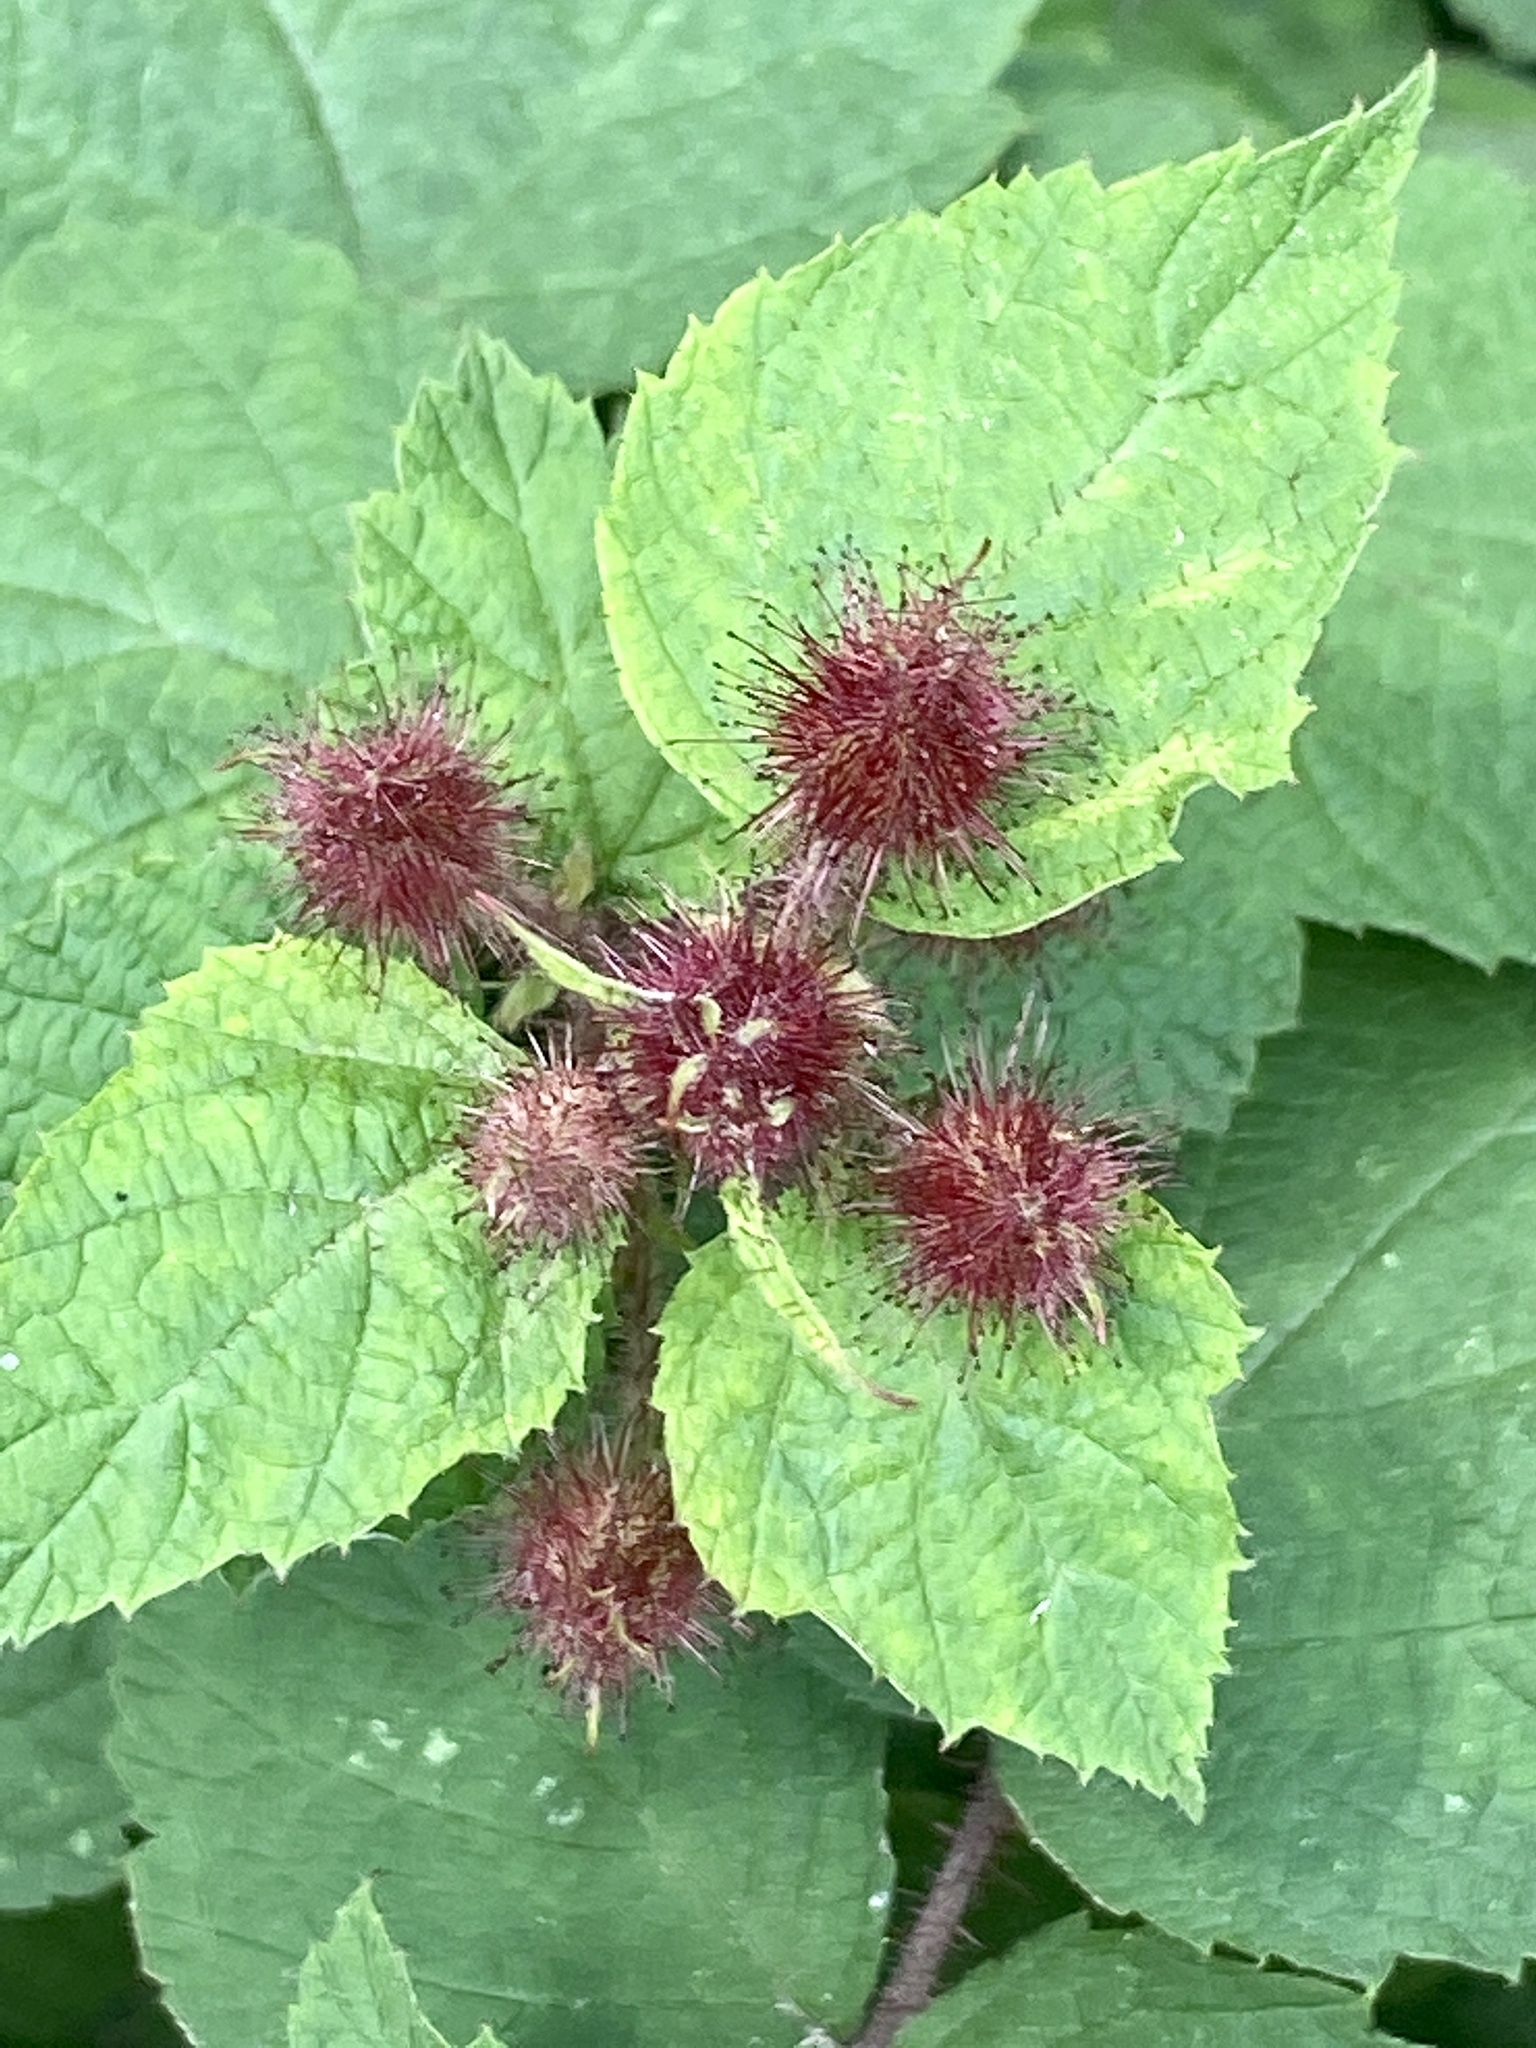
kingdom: Plantae
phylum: Tracheophyta
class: Magnoliopsida
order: Rosales
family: Rosaceae
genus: Rubus
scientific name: Rubus phoenicolasius
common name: Japanese wineberry
